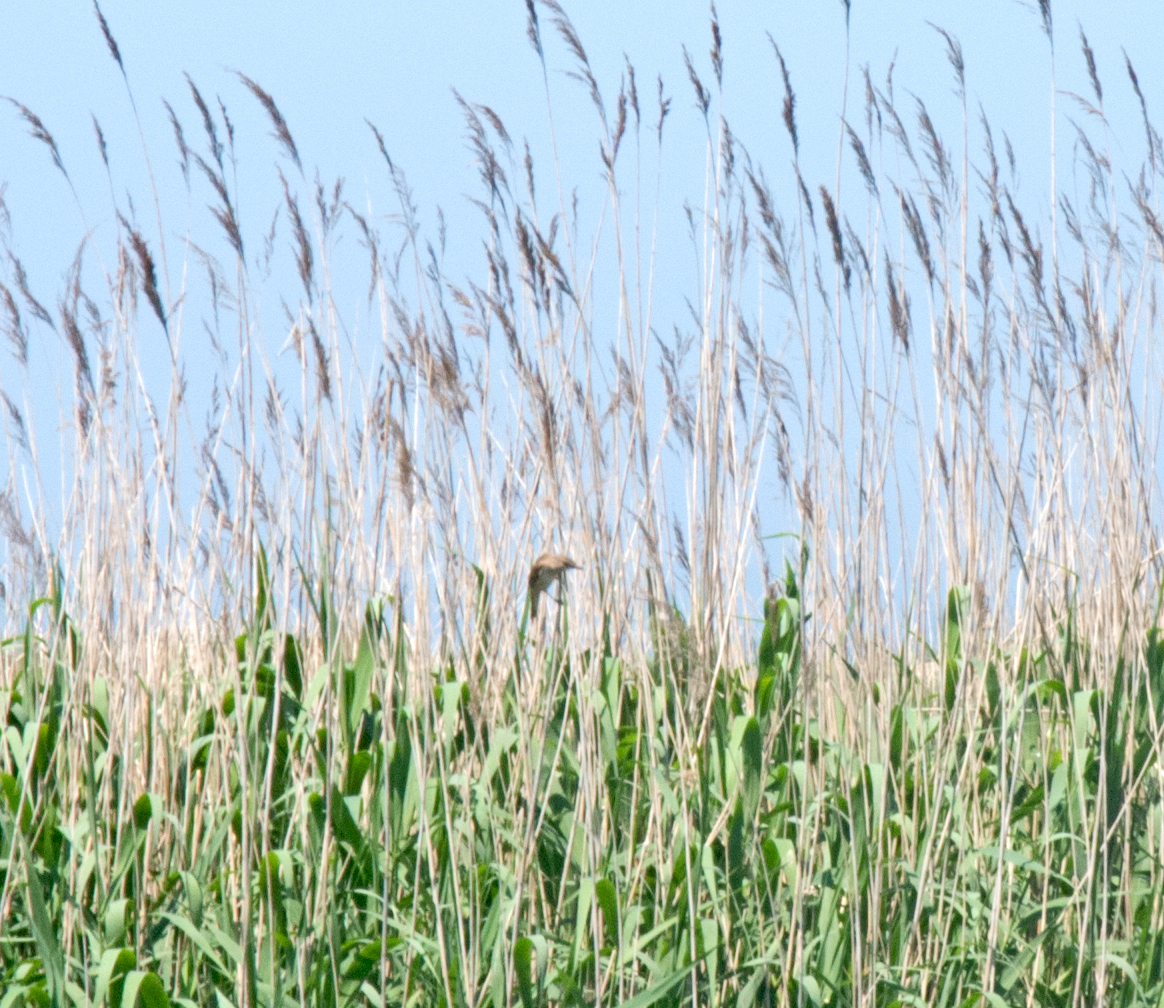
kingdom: Animalia
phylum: Chordata
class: Aves
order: Passeriformes
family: Acrocephalidae
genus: Acrocephalus
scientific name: Acrocephalus arundinaceus
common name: Great reed warbler
